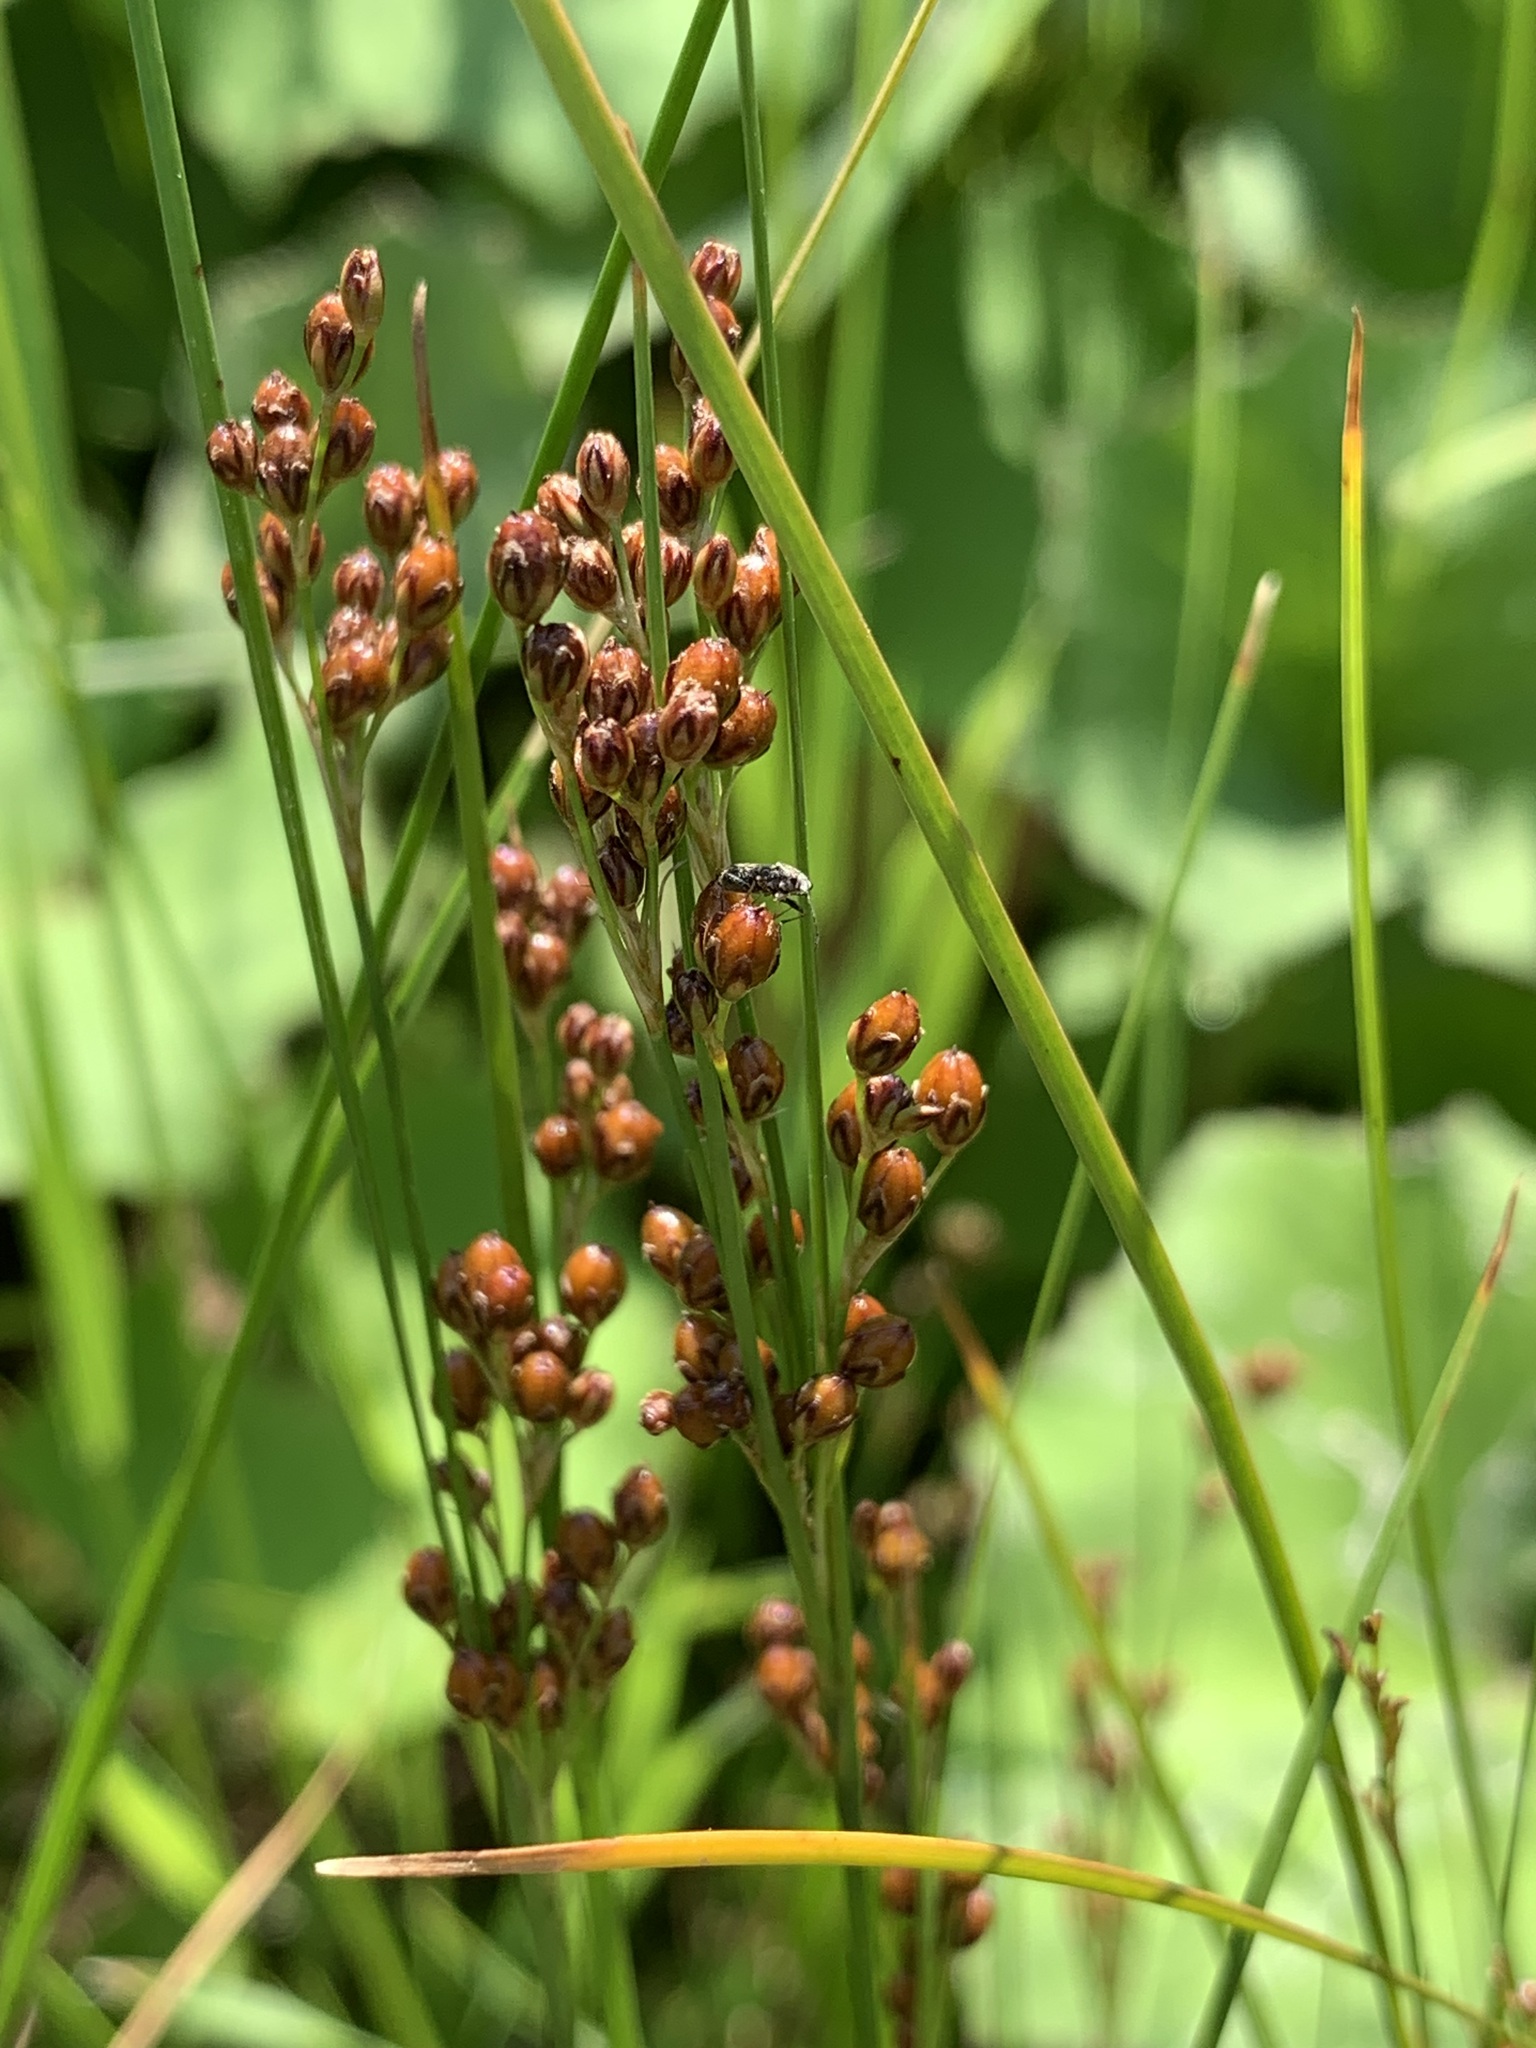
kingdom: Plantae
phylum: Tracheophyta
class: Liliopsida
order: Poales
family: Juncaceae
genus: Juncus
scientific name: Juncus compressus
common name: Round-fruited rush
